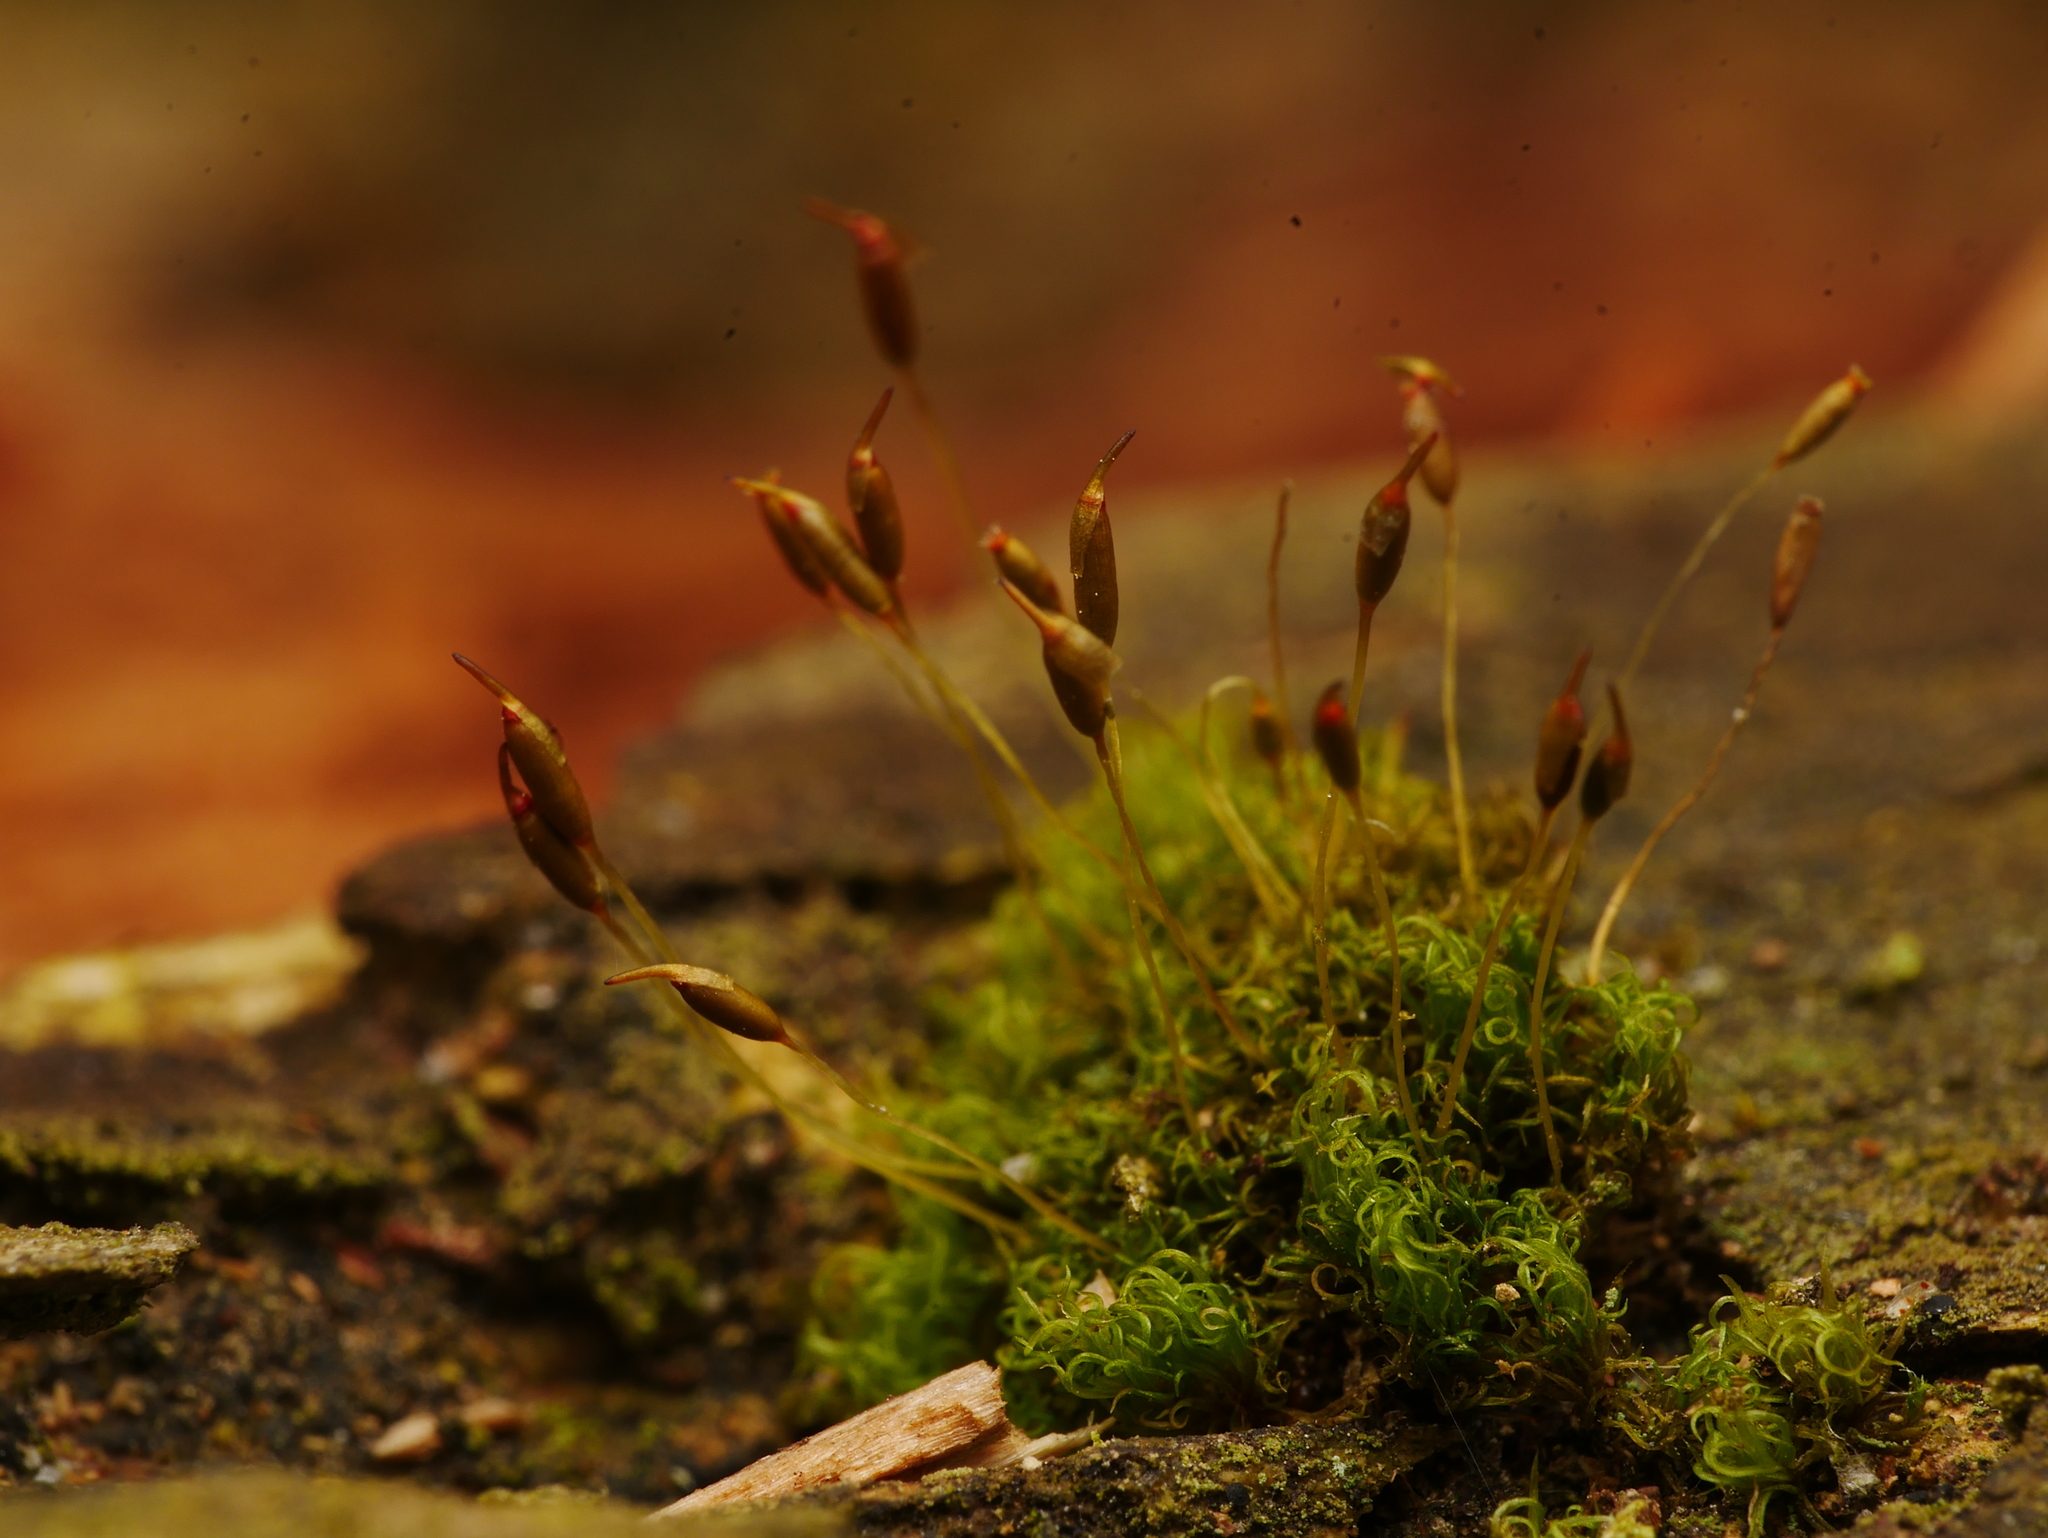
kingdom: Plantae
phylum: Bryophyta
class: Bryopsida
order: Dicranales
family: Rhabdoweisiaceae
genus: Dicranoweisia
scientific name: Dicranoweisia cirrata
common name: Common pincushion
